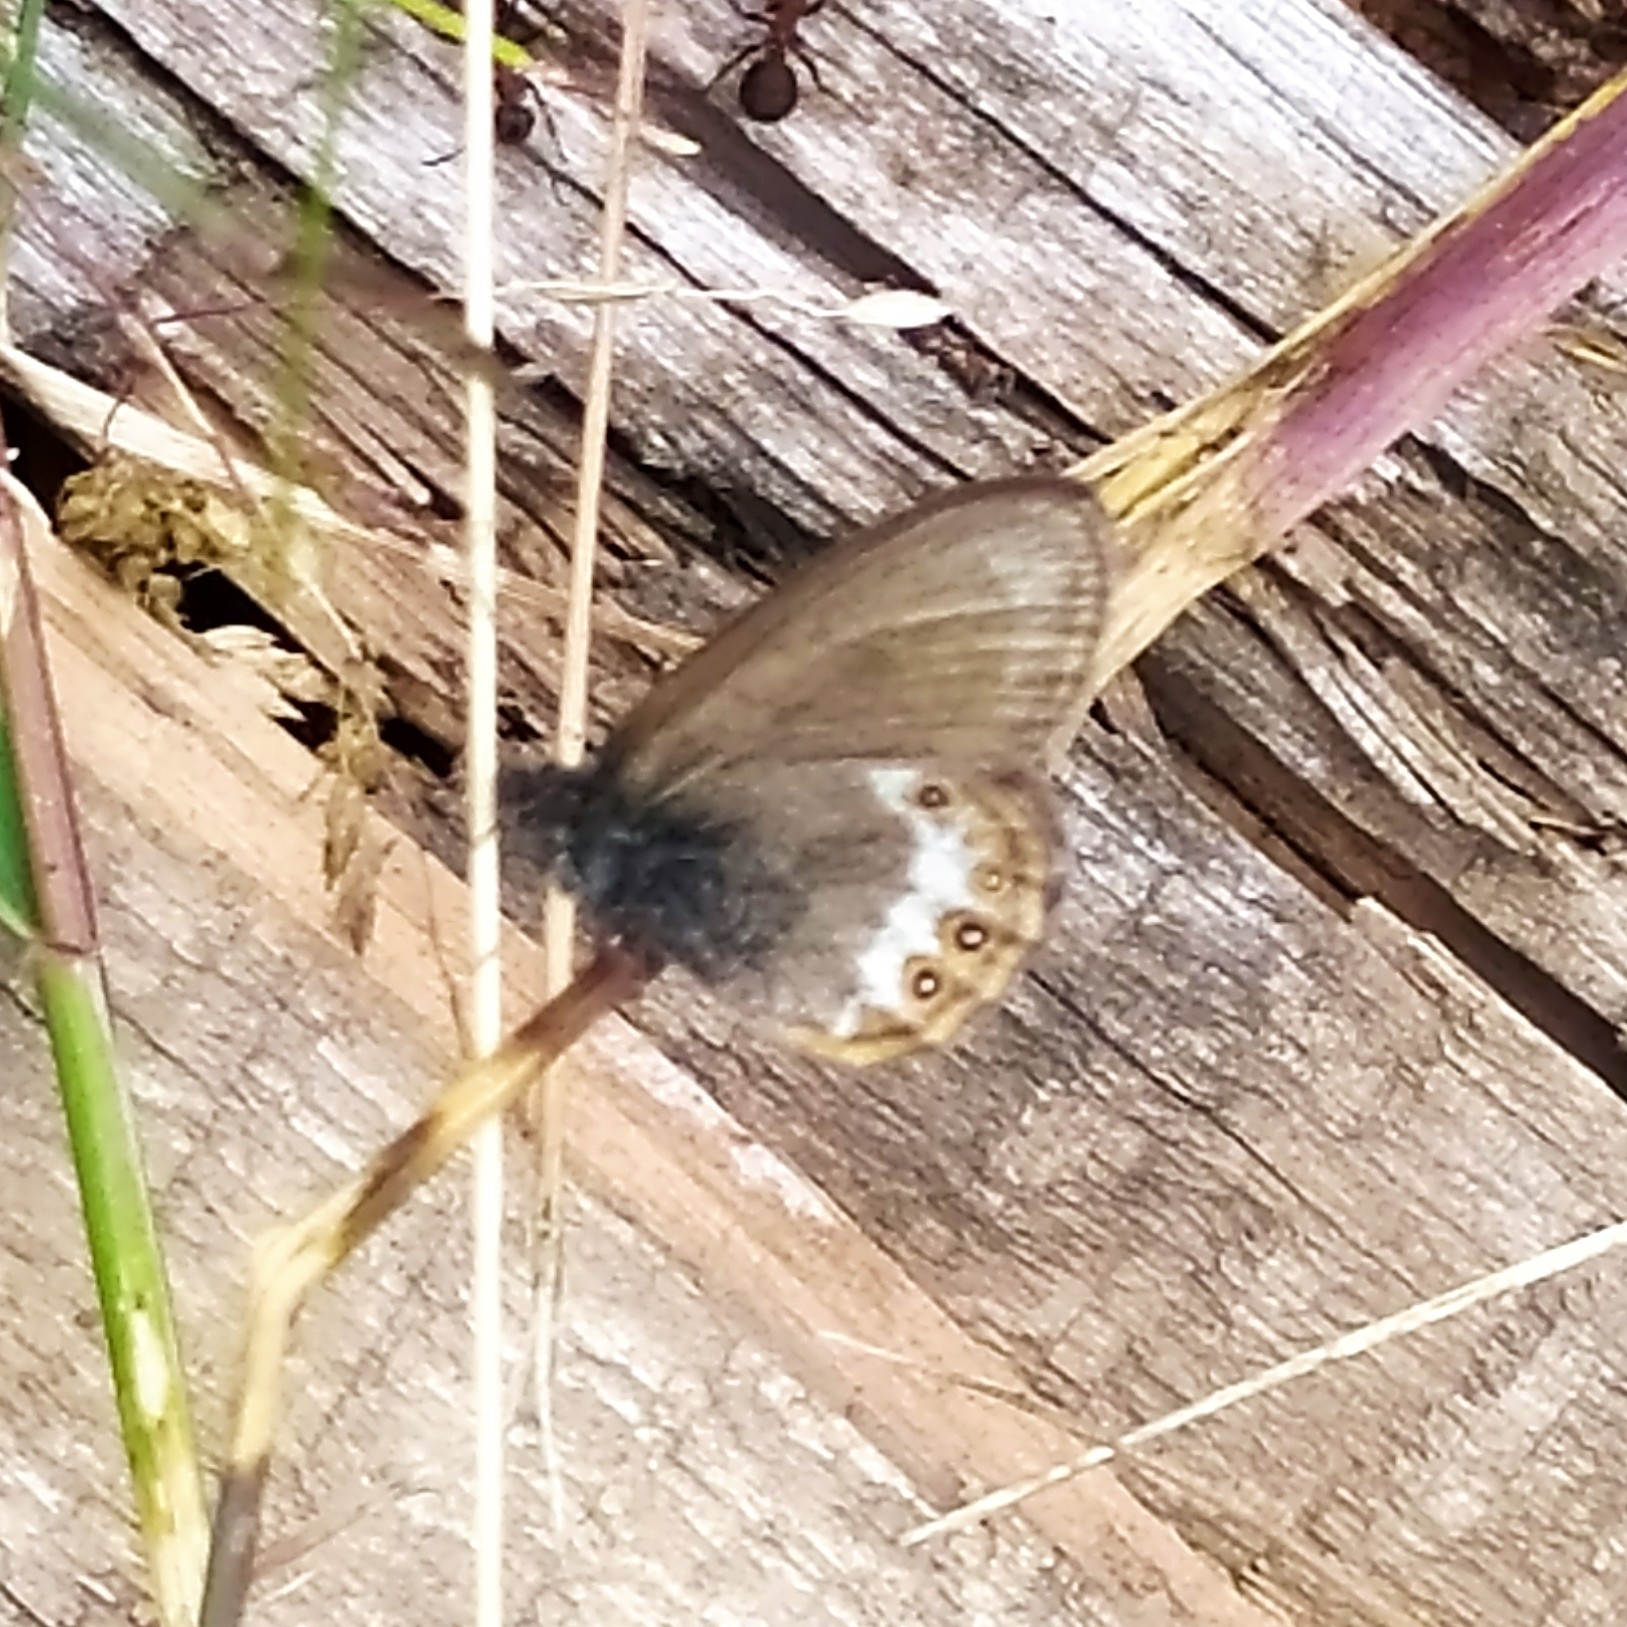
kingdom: Animalia
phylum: Arthropoda
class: Insecta
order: Lepidoptera
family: Nymphalidae
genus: Coenonympha
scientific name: Coenonympha hero
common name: Scarce heath
